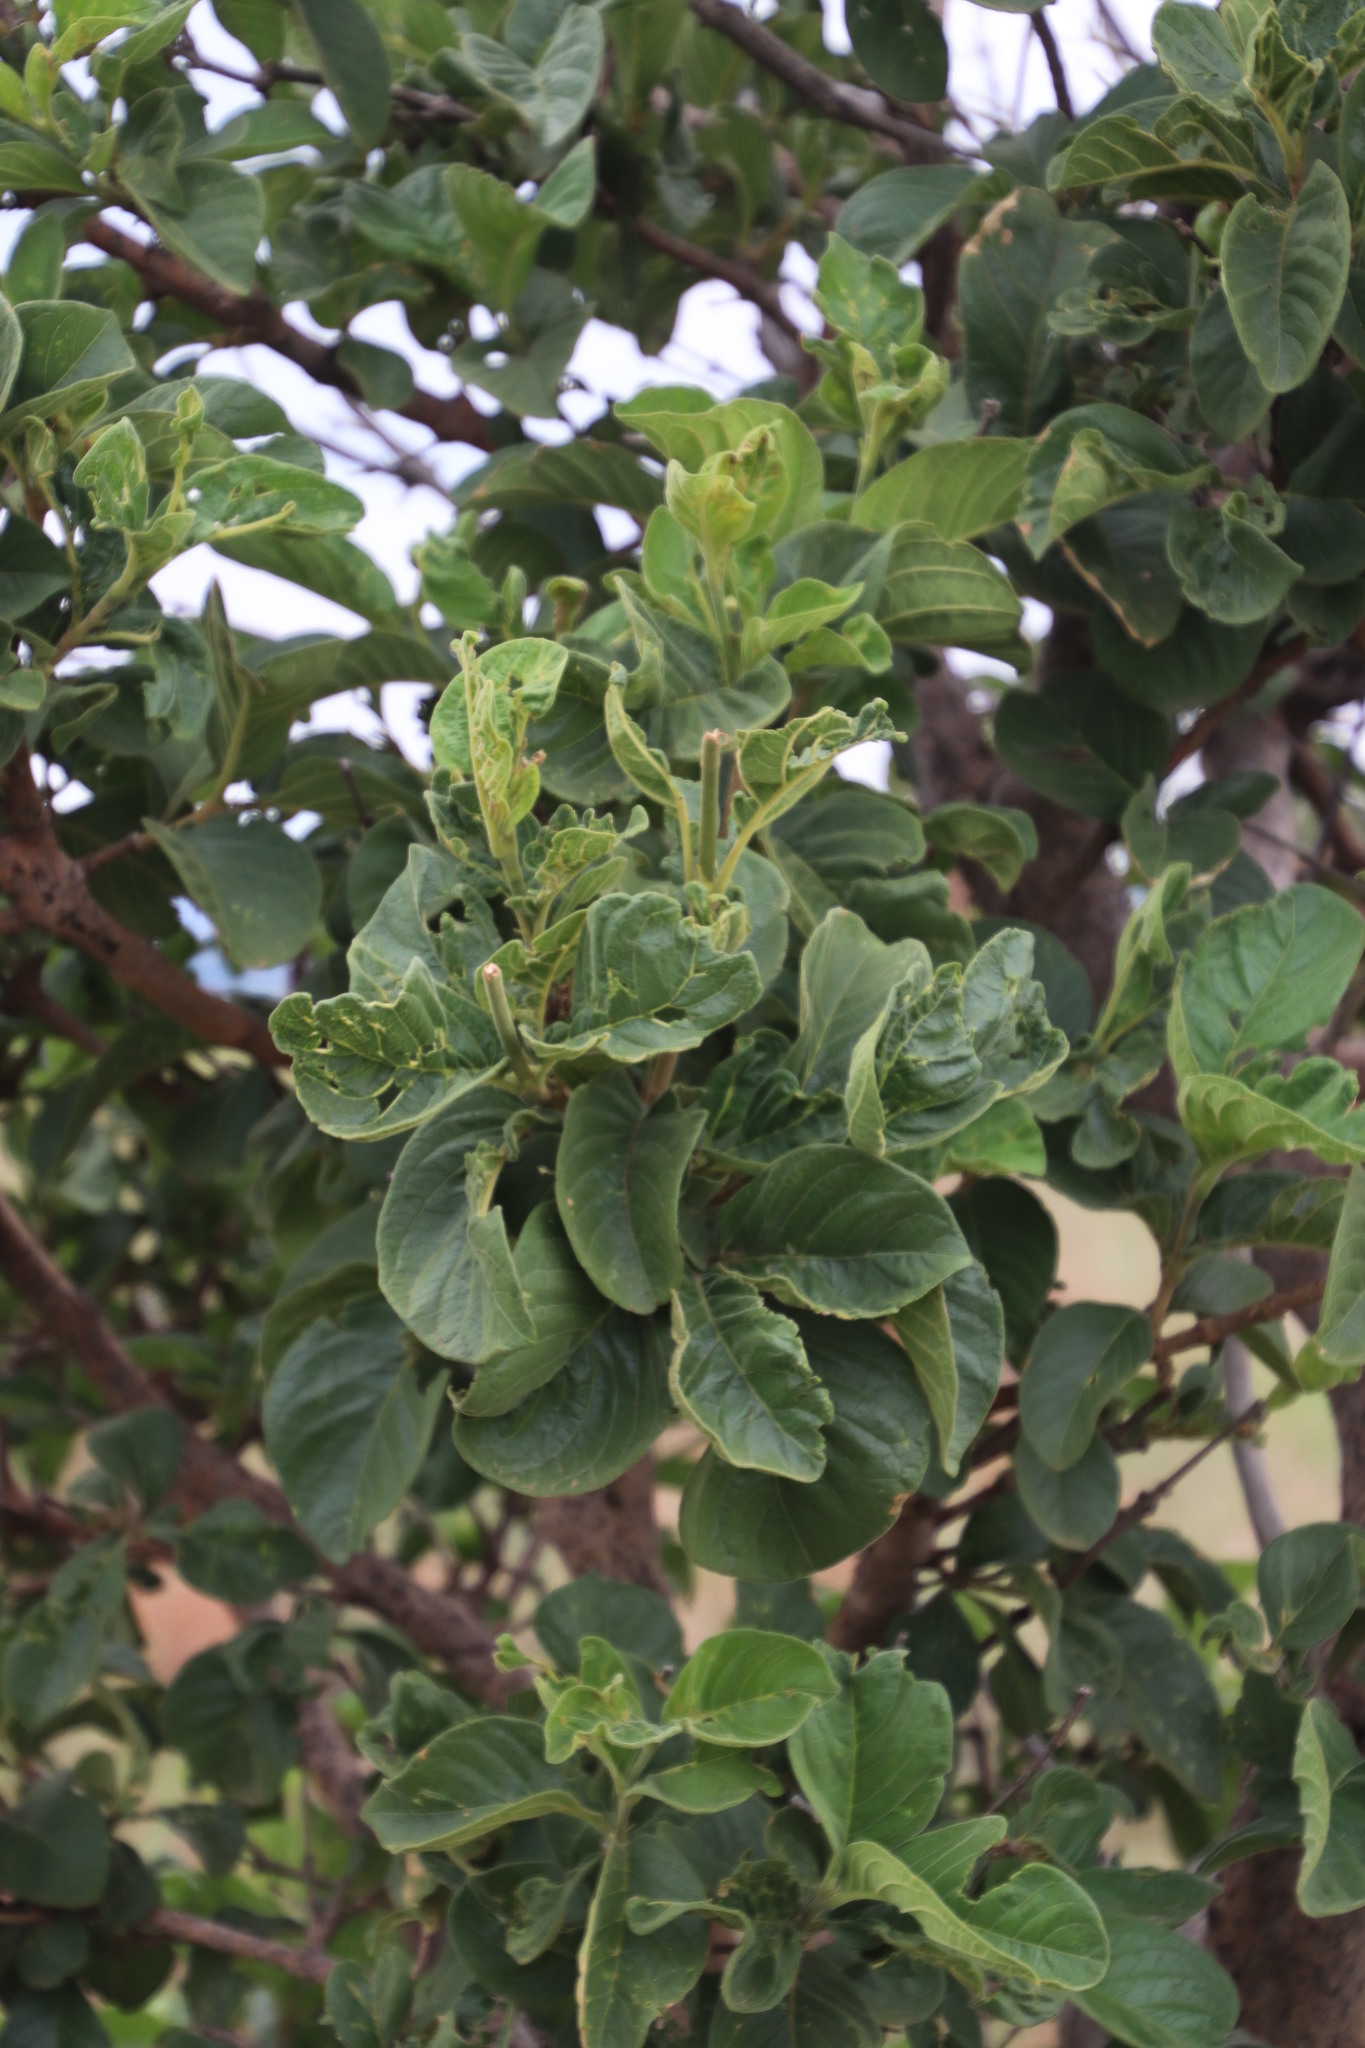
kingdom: Plantae
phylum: Tracheophyta
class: Magnoliopsida
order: Gentianales
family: Rubiaceae
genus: Vangueria
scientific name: Vangueria infausta
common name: Medlar
